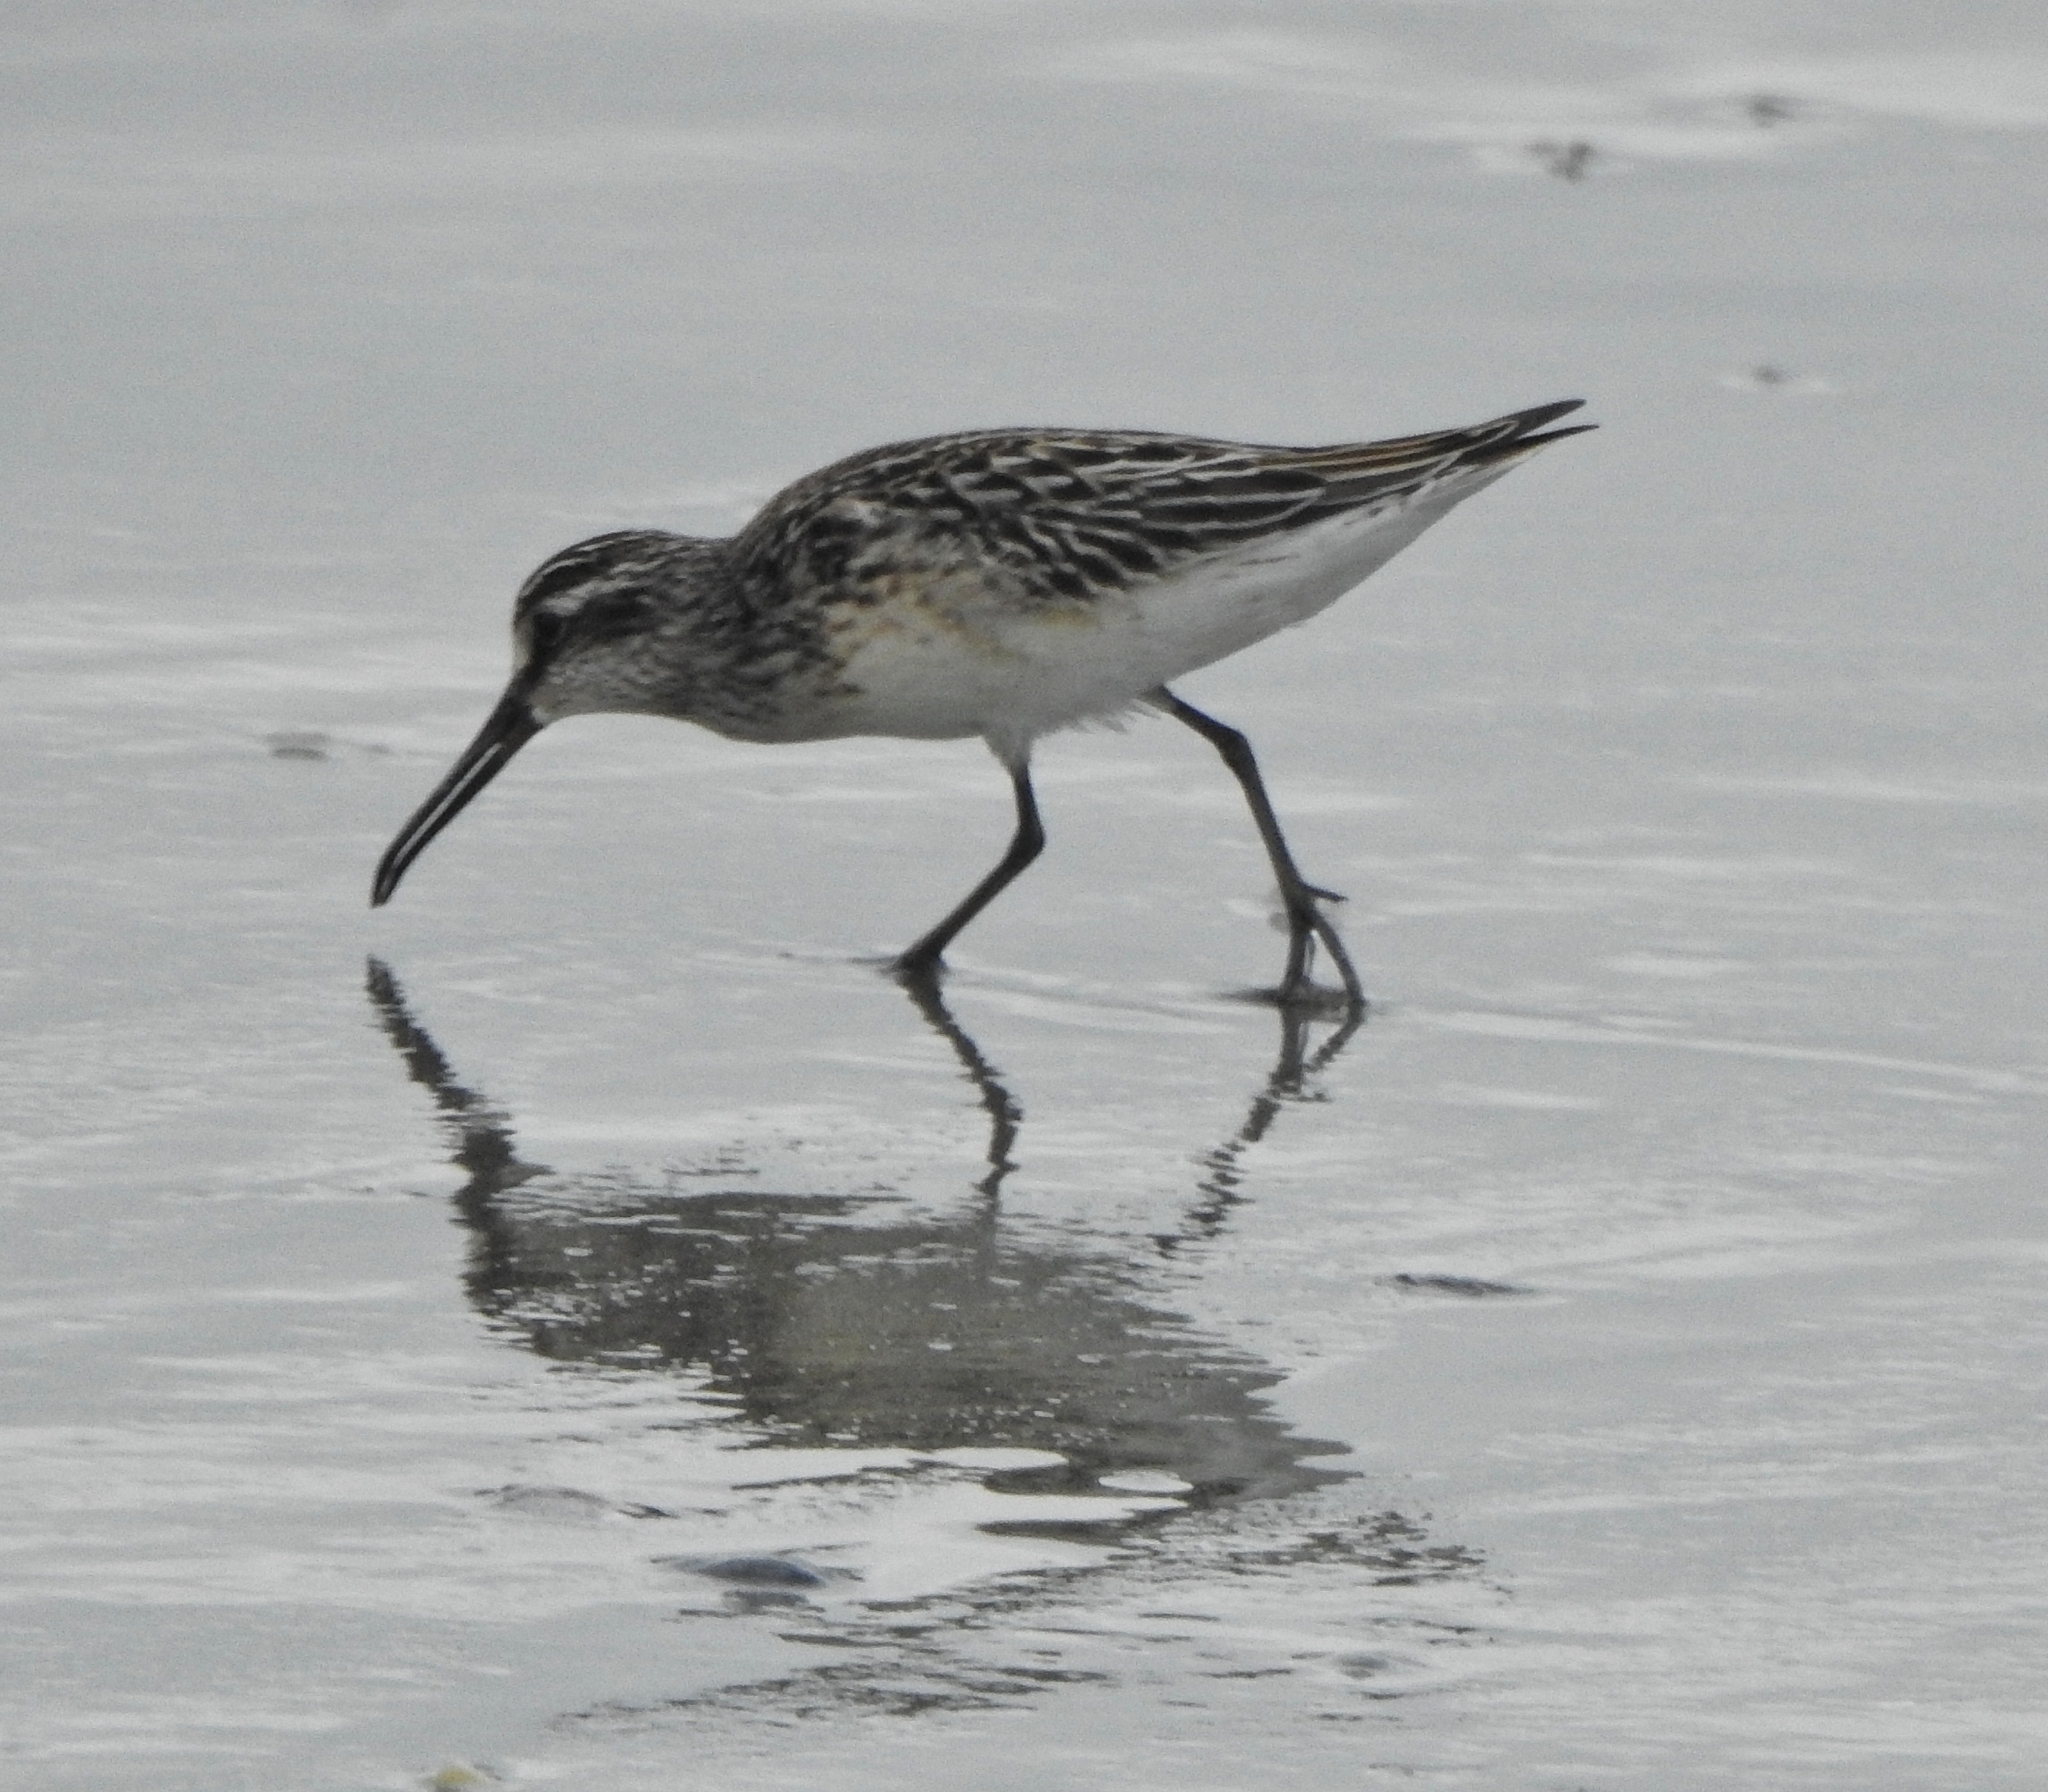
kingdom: Animalia
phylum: Chordata
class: Aves
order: Charadriiformes
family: Scolopacidae
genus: Calidris
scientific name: Calidris falcinellus
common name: Broad-billed sandpiper
